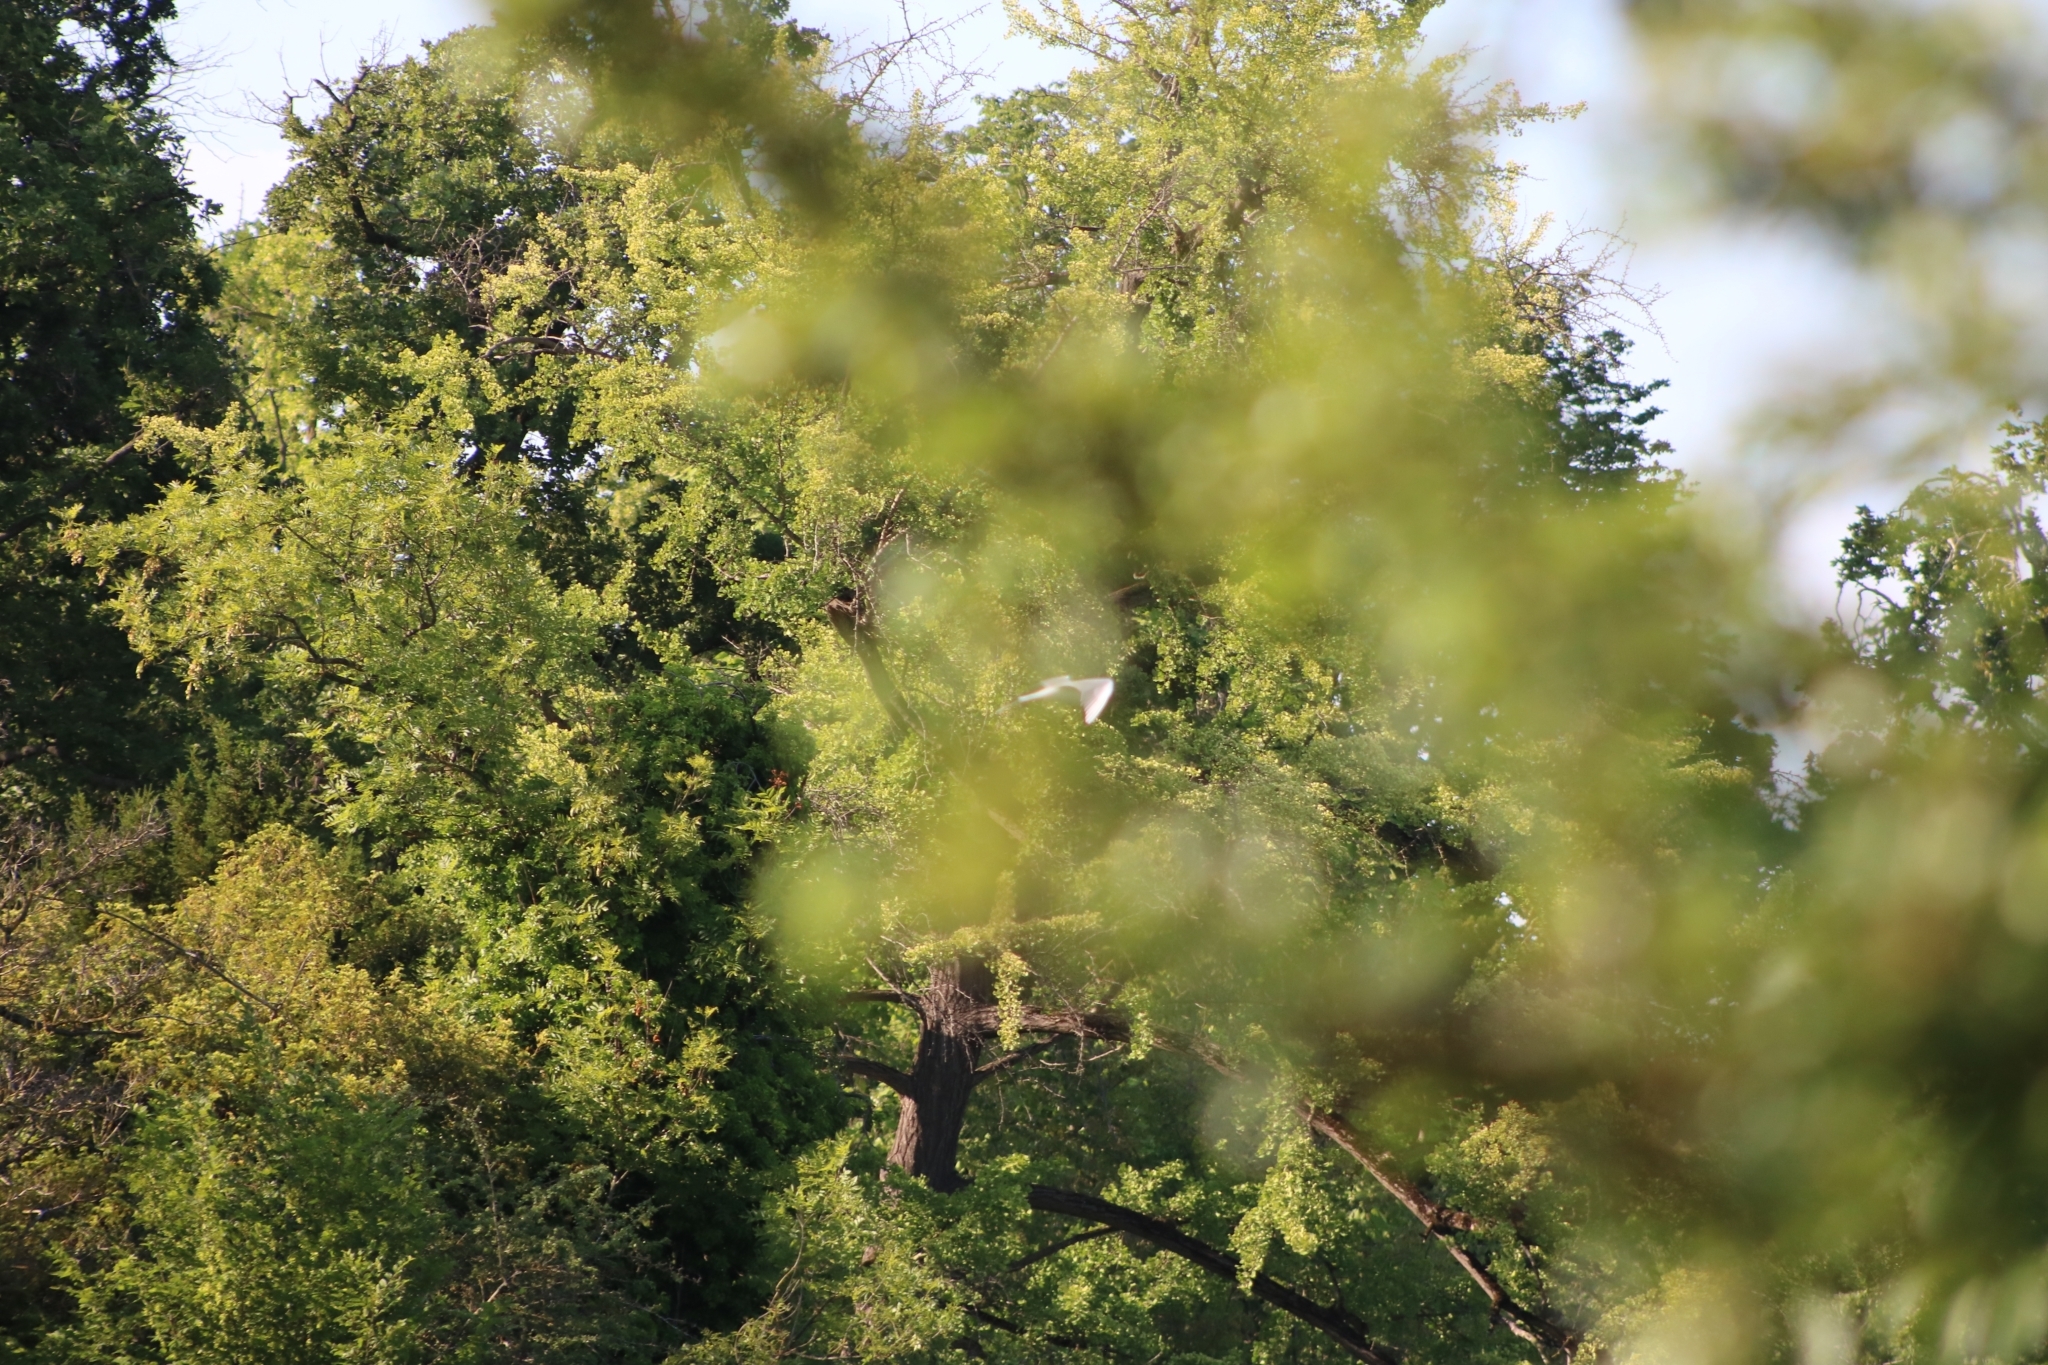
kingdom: Animalia
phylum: Chordata
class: Aves
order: Charadriiformes
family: Laridae
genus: Chroicocephalus
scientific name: Chroicocephalus ridibundus
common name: Black-headed gull
